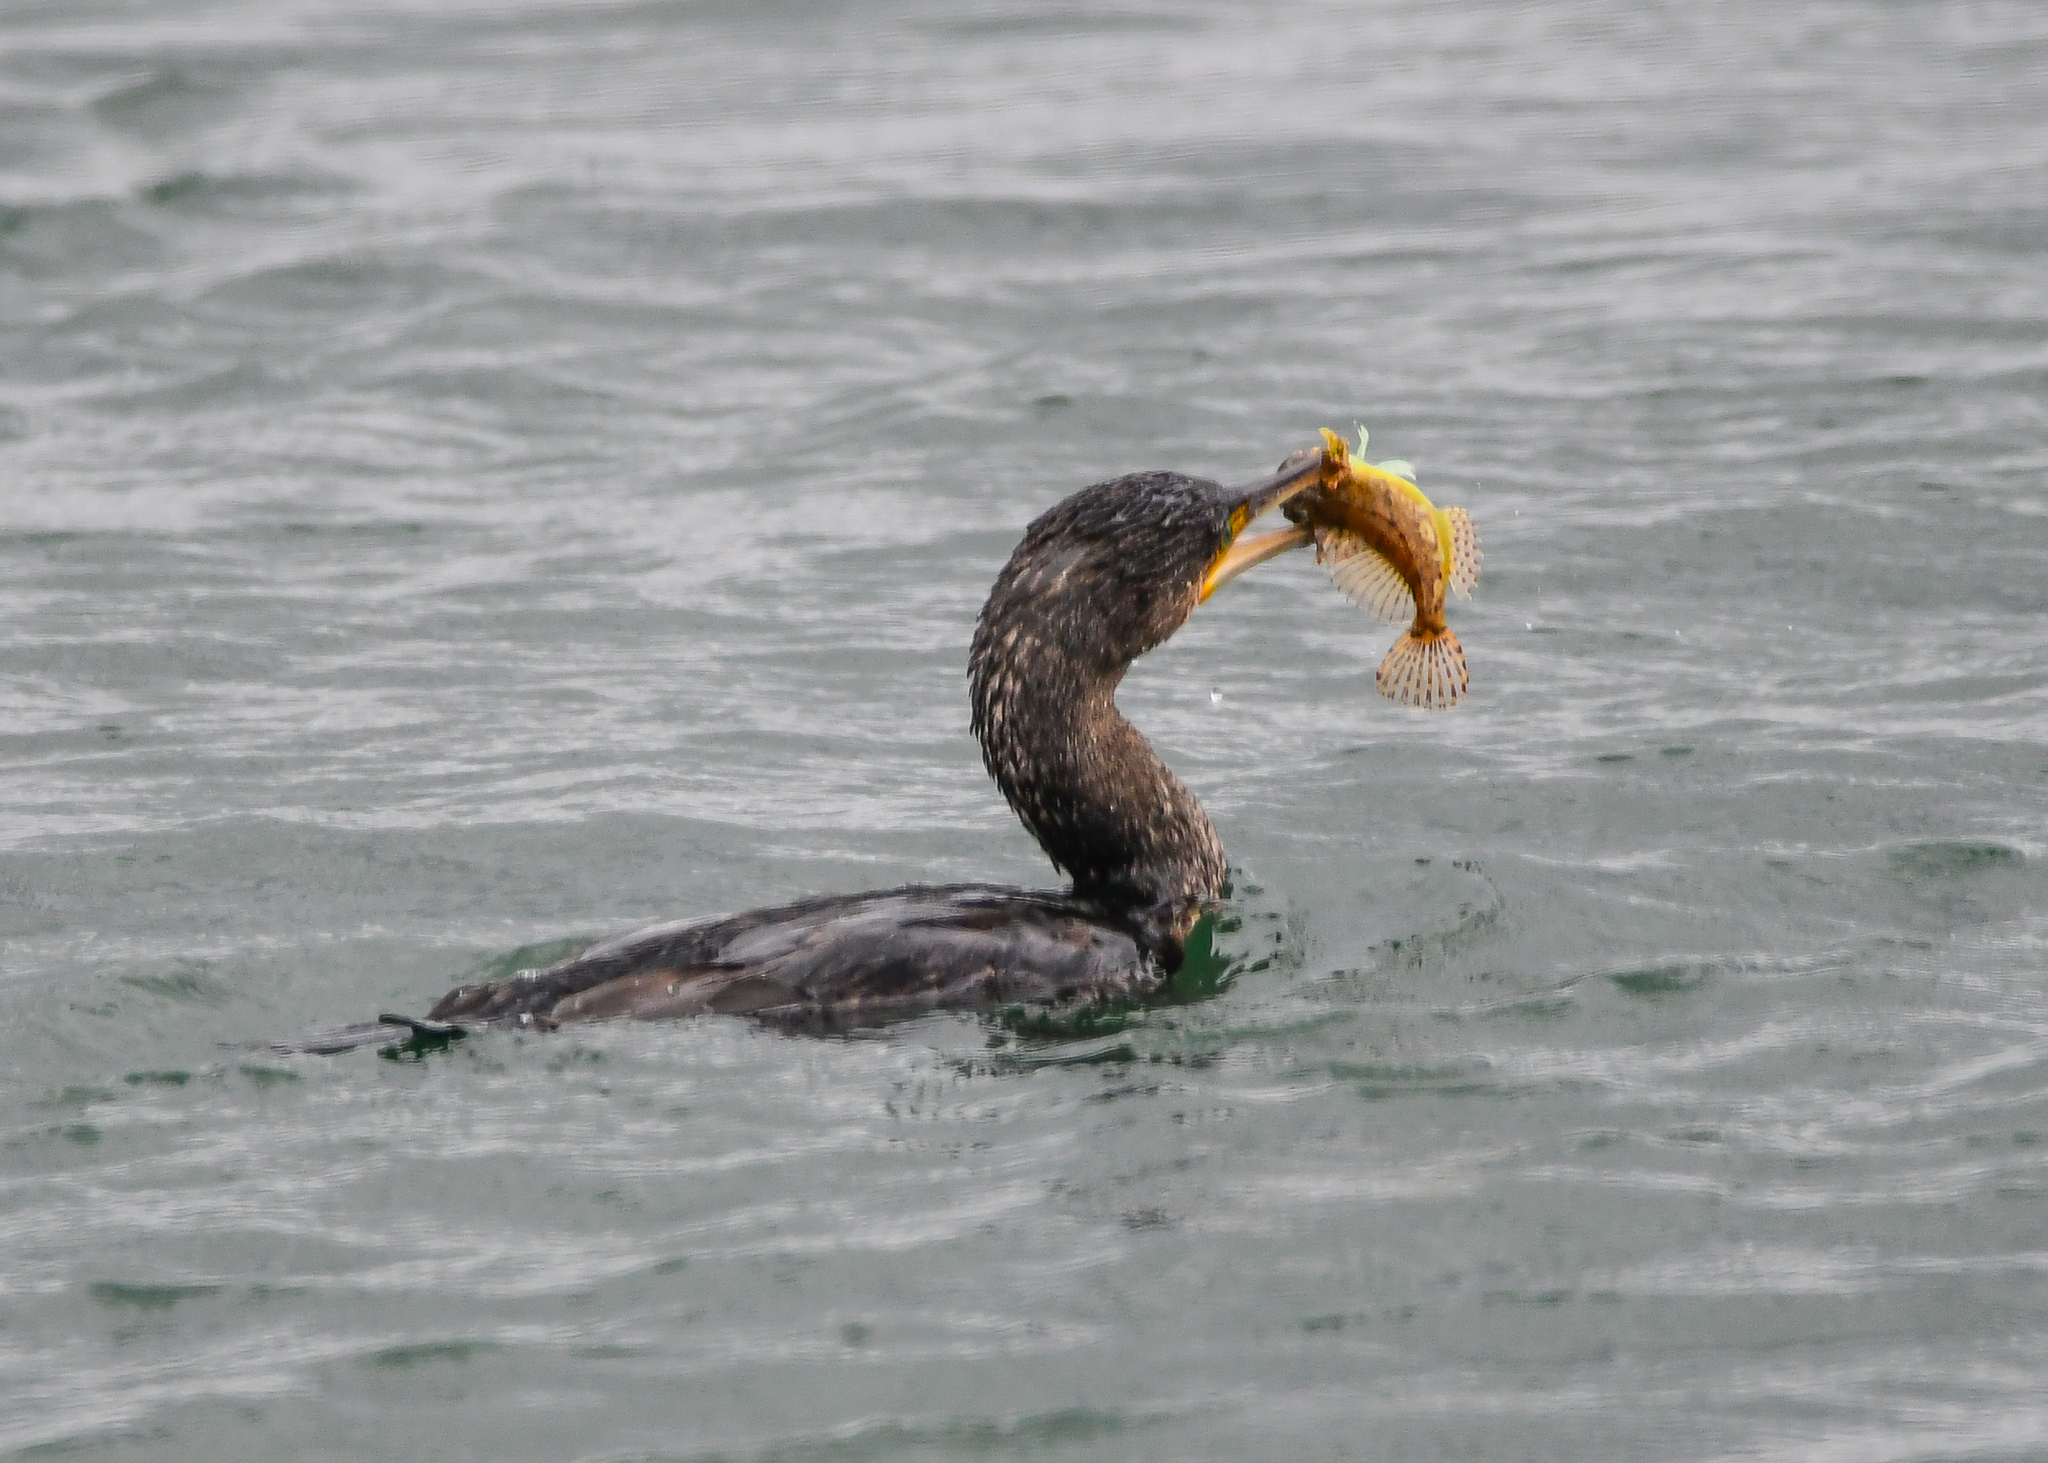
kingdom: Animalia
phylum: Chordata
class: Aves
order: Suliformes
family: Phalacrocoracidae
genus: Phalacrocorax
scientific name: Phalacrocorax carbo
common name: Great cormorant
